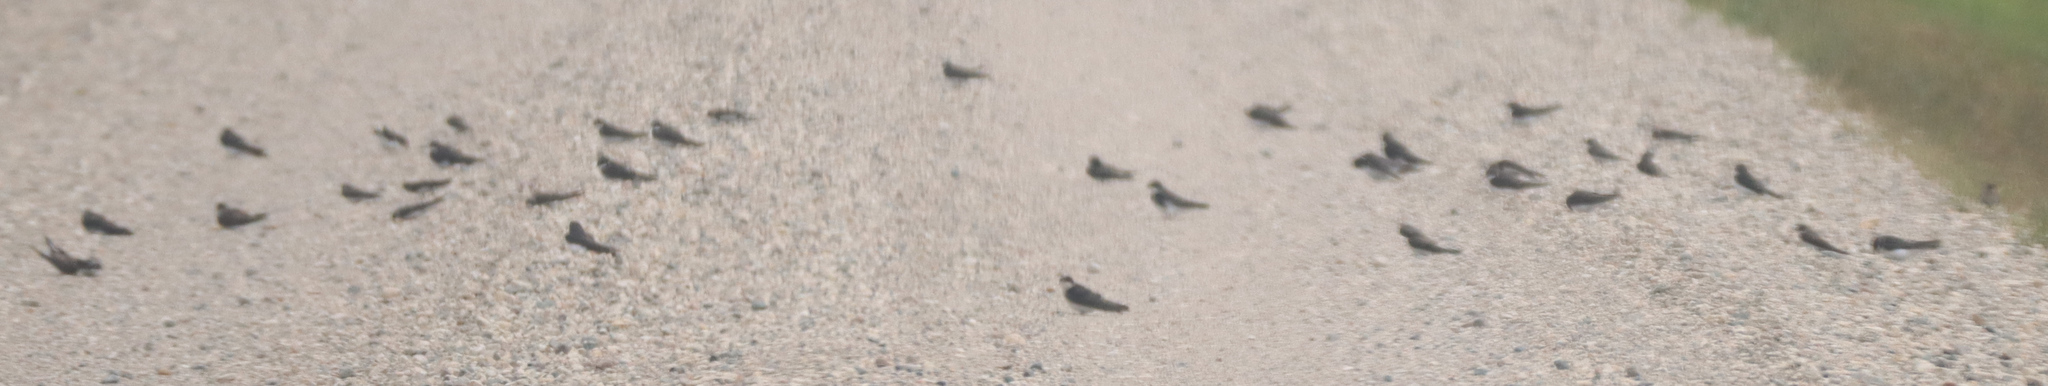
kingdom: Animalia
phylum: Chordata
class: Aves
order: Passeriformes
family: Hirundinidae
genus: Riparia
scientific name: Riparia riparia
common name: Sand martin
